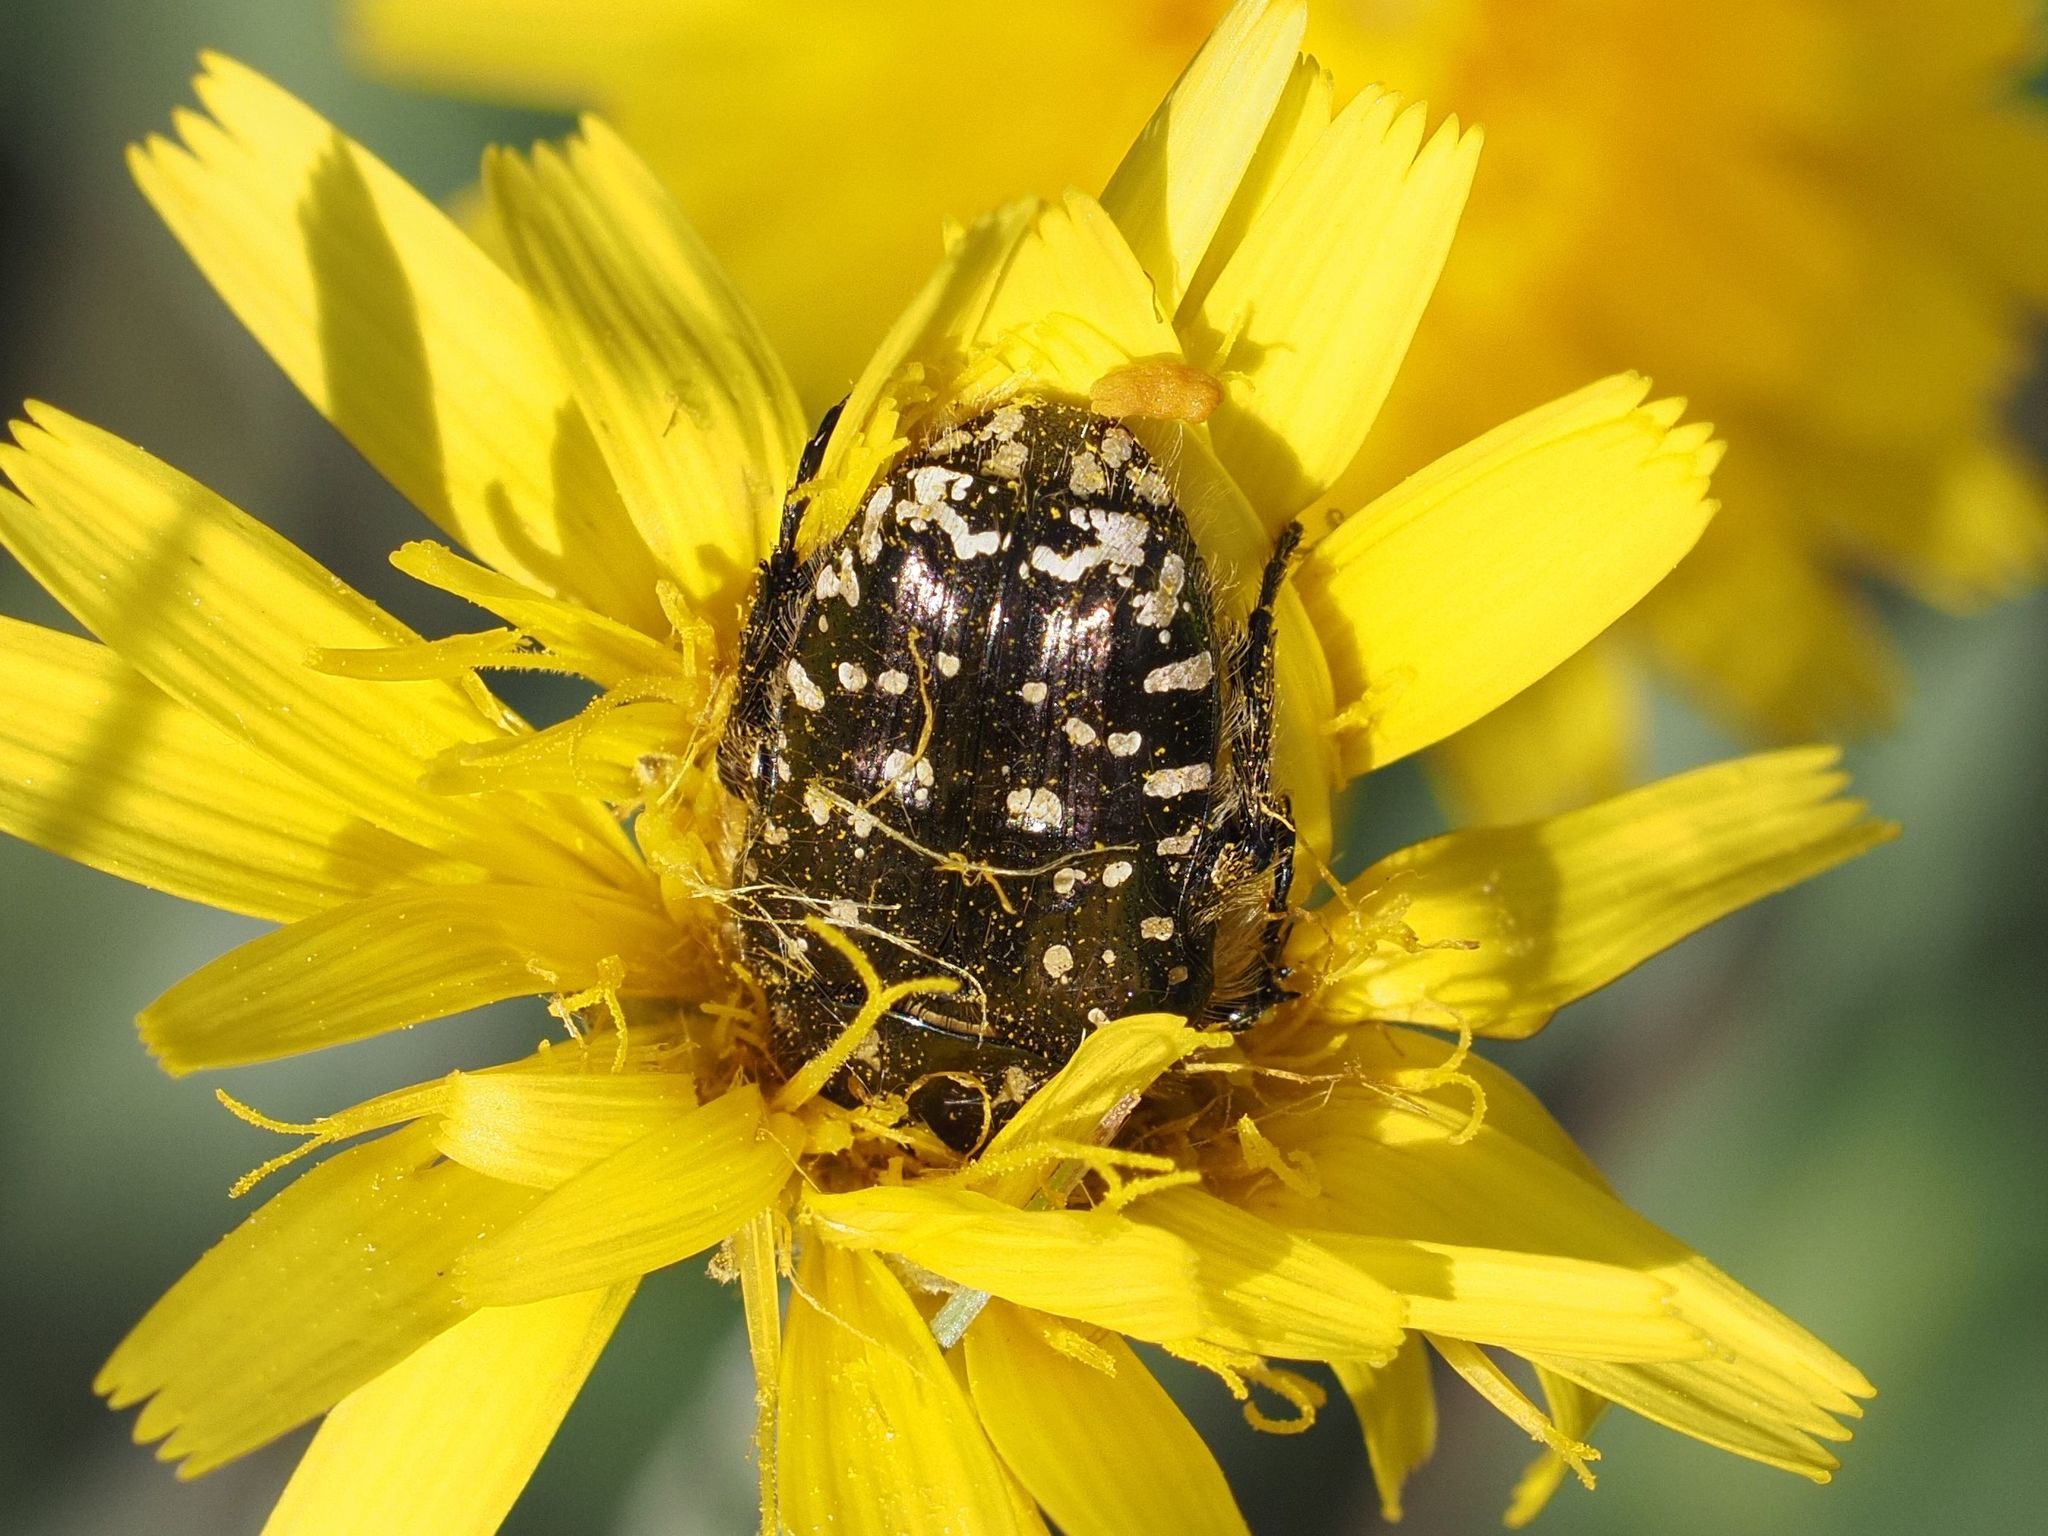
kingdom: Animalia
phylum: Arthropoda
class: Insecta
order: Coleoptera
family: Scarabaeidae
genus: Oxythyrea
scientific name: Oxythyrea funesta
